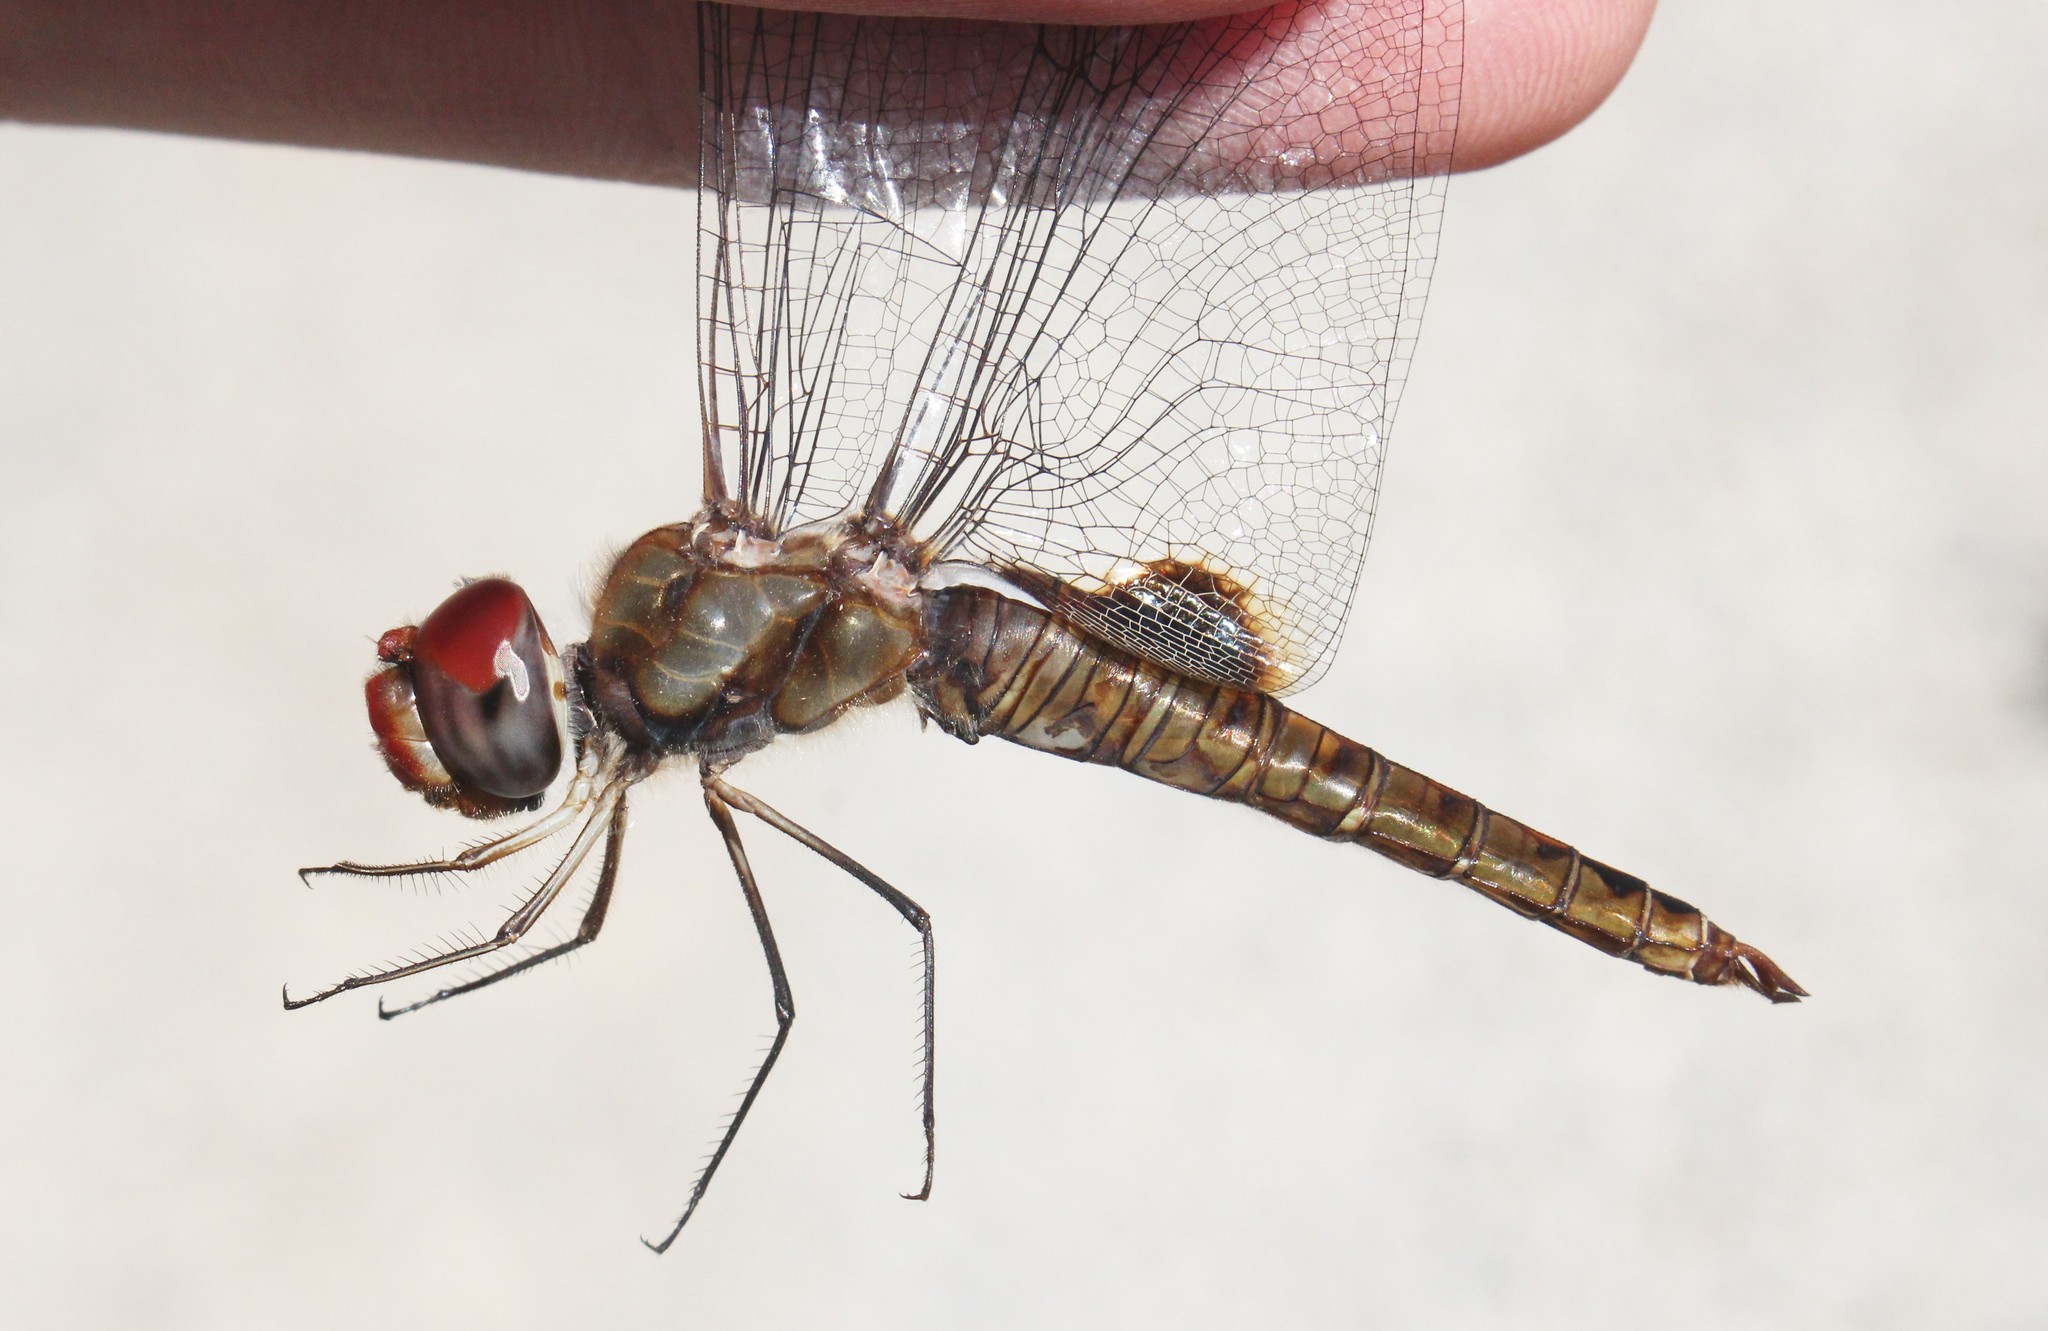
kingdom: Animalia
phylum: Arthropoda
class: Insecta
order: Odonata
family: Libellulidae
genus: Pantala
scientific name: Pantala hymenaea
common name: Spot-winged glider
